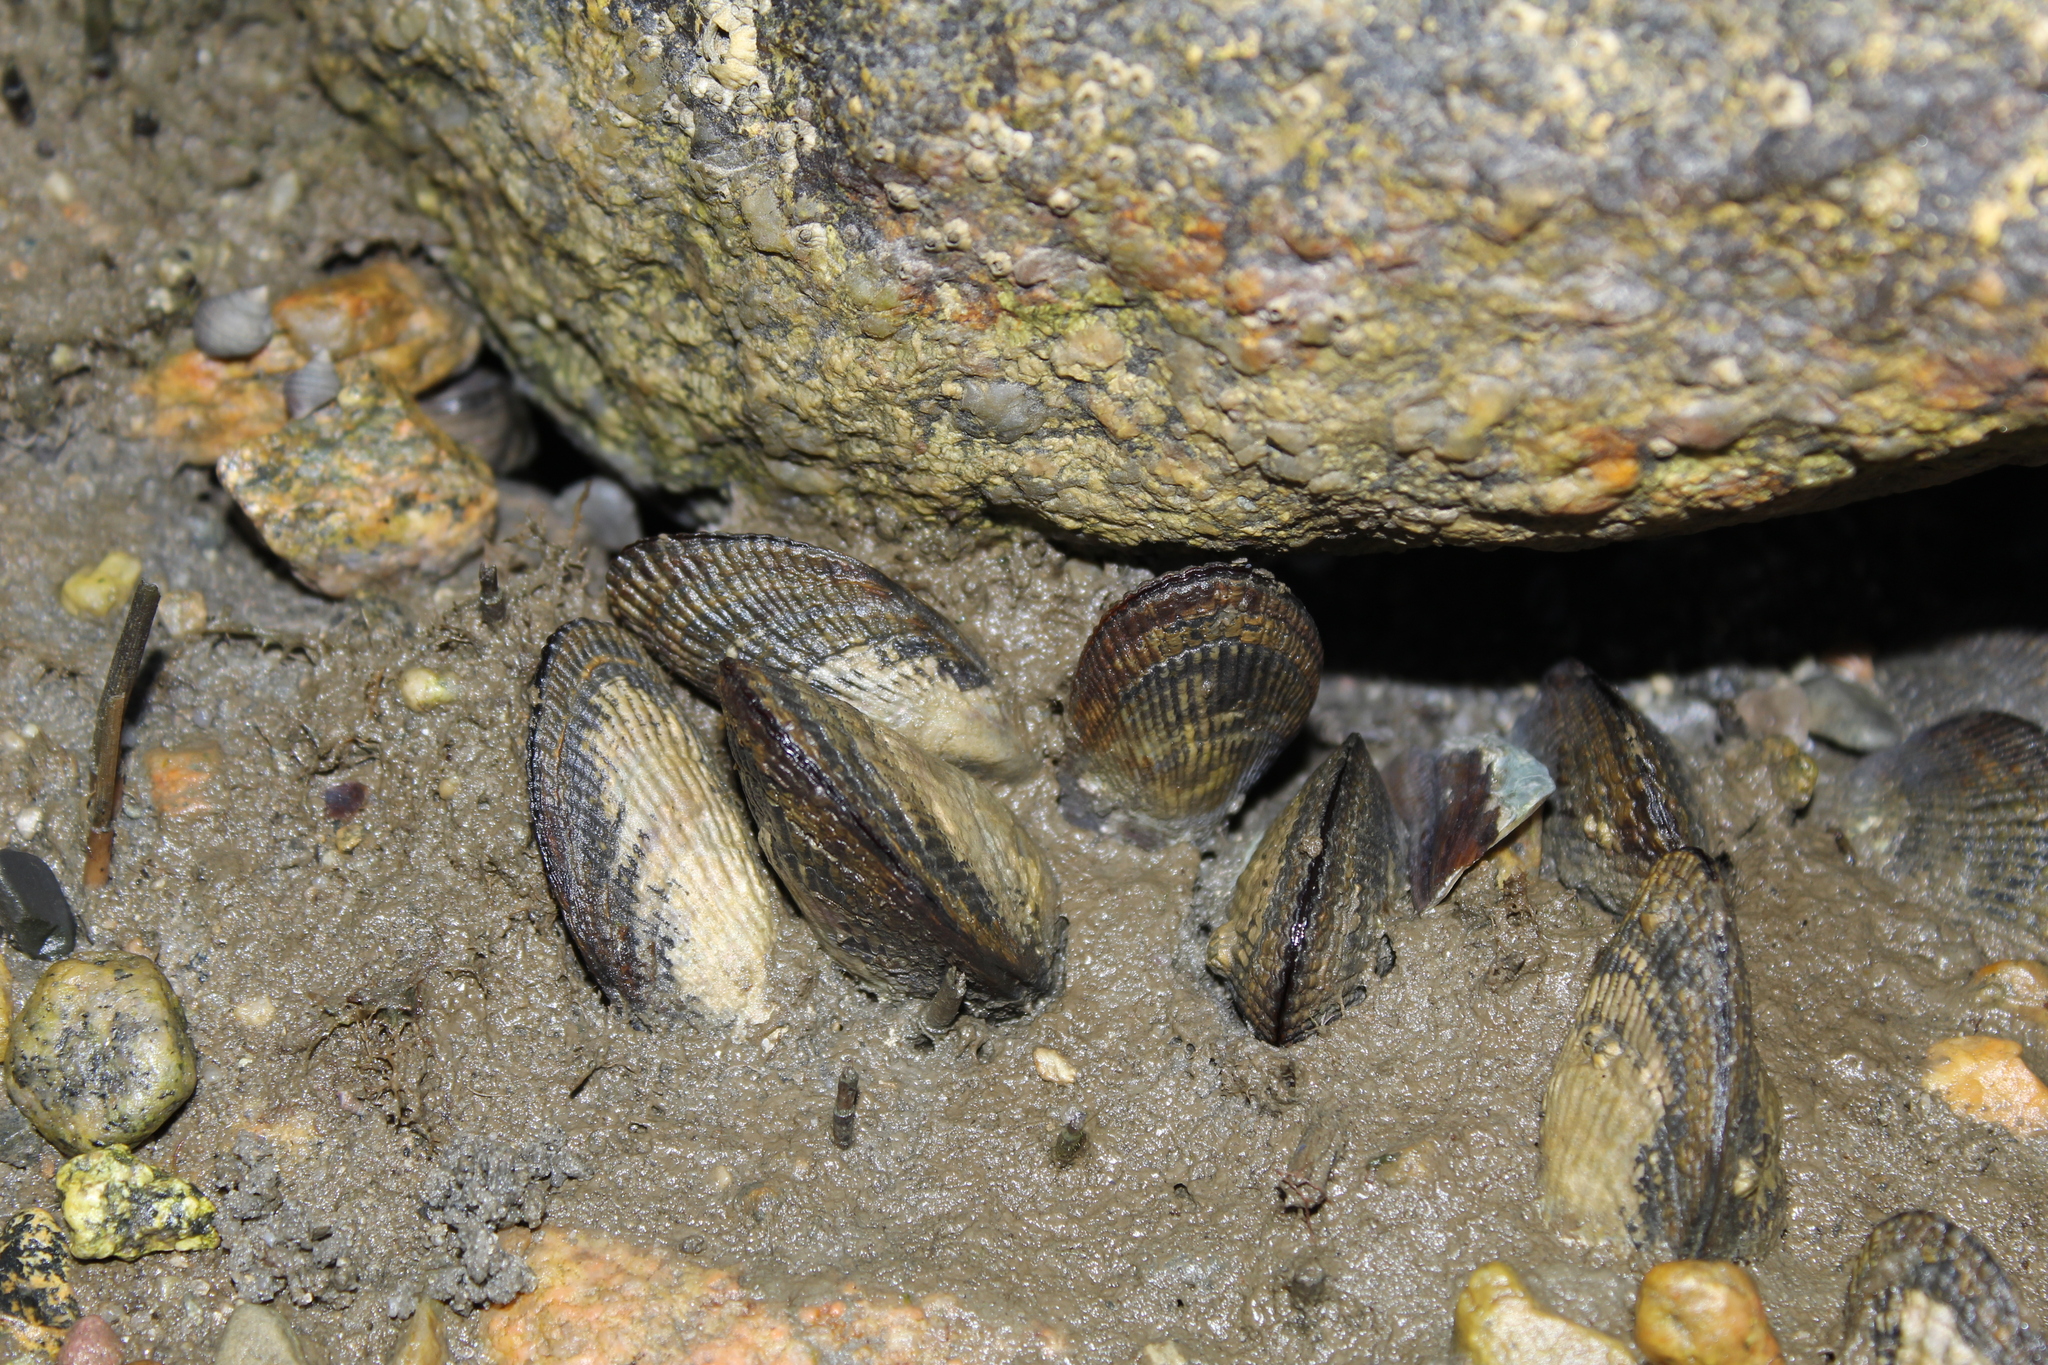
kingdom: Plantae
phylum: Tracheophyta
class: Magnoliopsida
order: Caryophyllales
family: Plumbaginaceae
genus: Limonium
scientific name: Limonium carolinianum
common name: Carolina sea lavender
